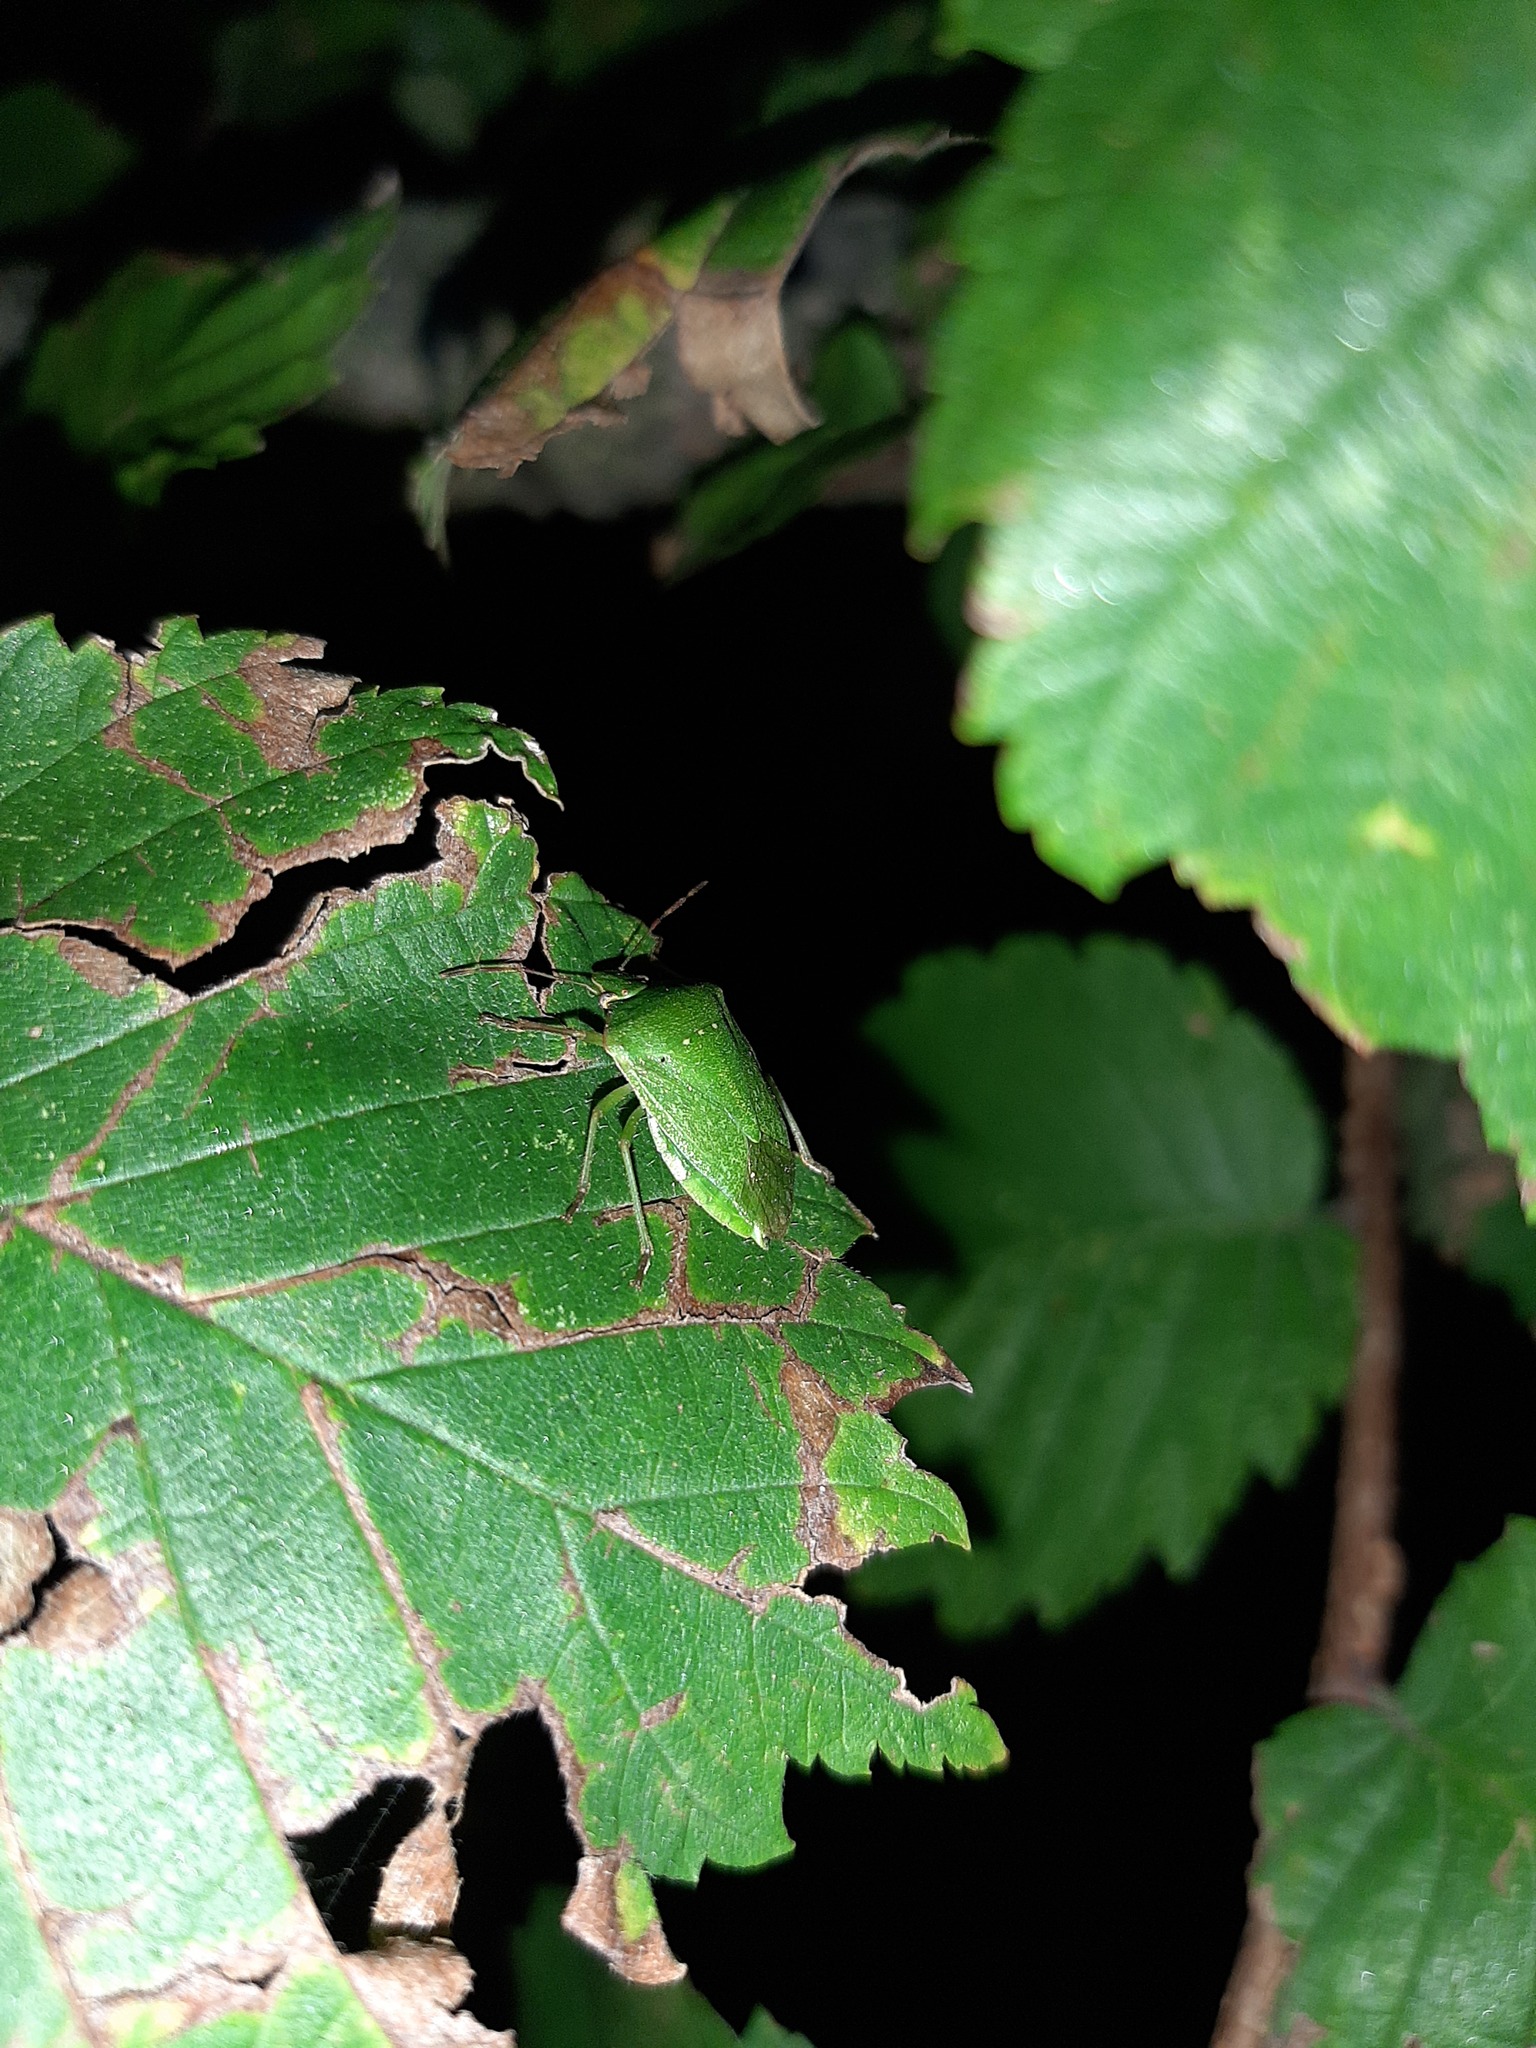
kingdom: Animalia
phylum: Arthropoda
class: Insecta
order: Hemiptera
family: Pentatomidae
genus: Nezara
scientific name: Nezara viridula
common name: Southern green stink bug
